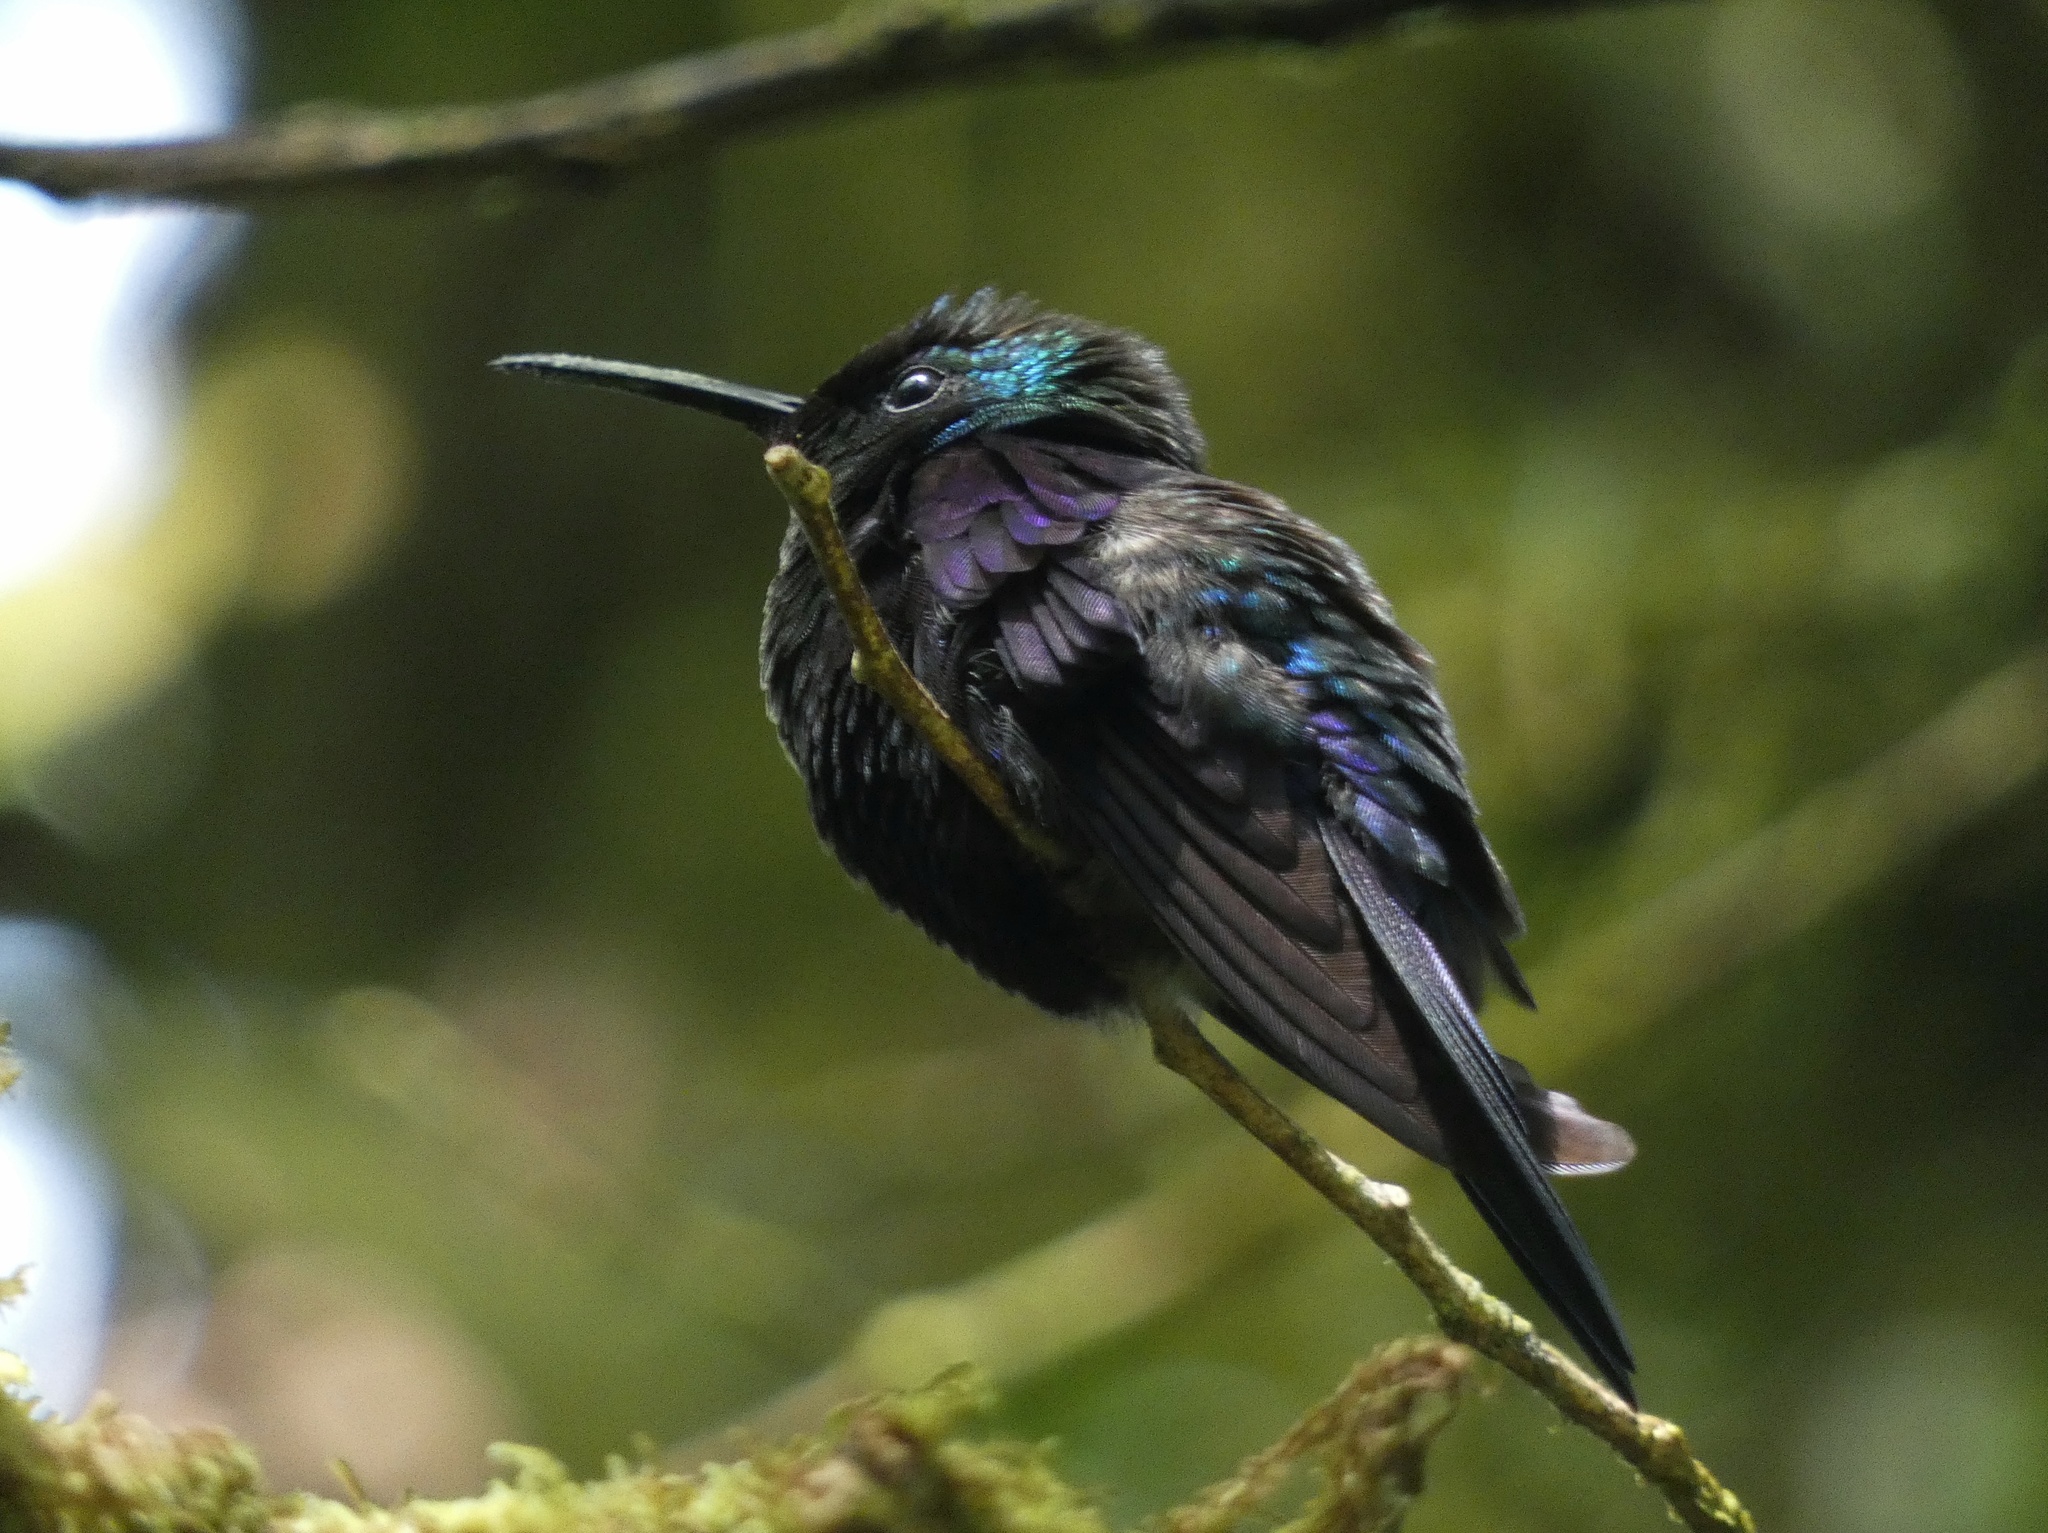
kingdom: Animalia
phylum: Chordata
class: Aves
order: Apodiformes
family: Trochilidae
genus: Thalurania
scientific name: Thalurania colombica
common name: Crowned woodnymph
